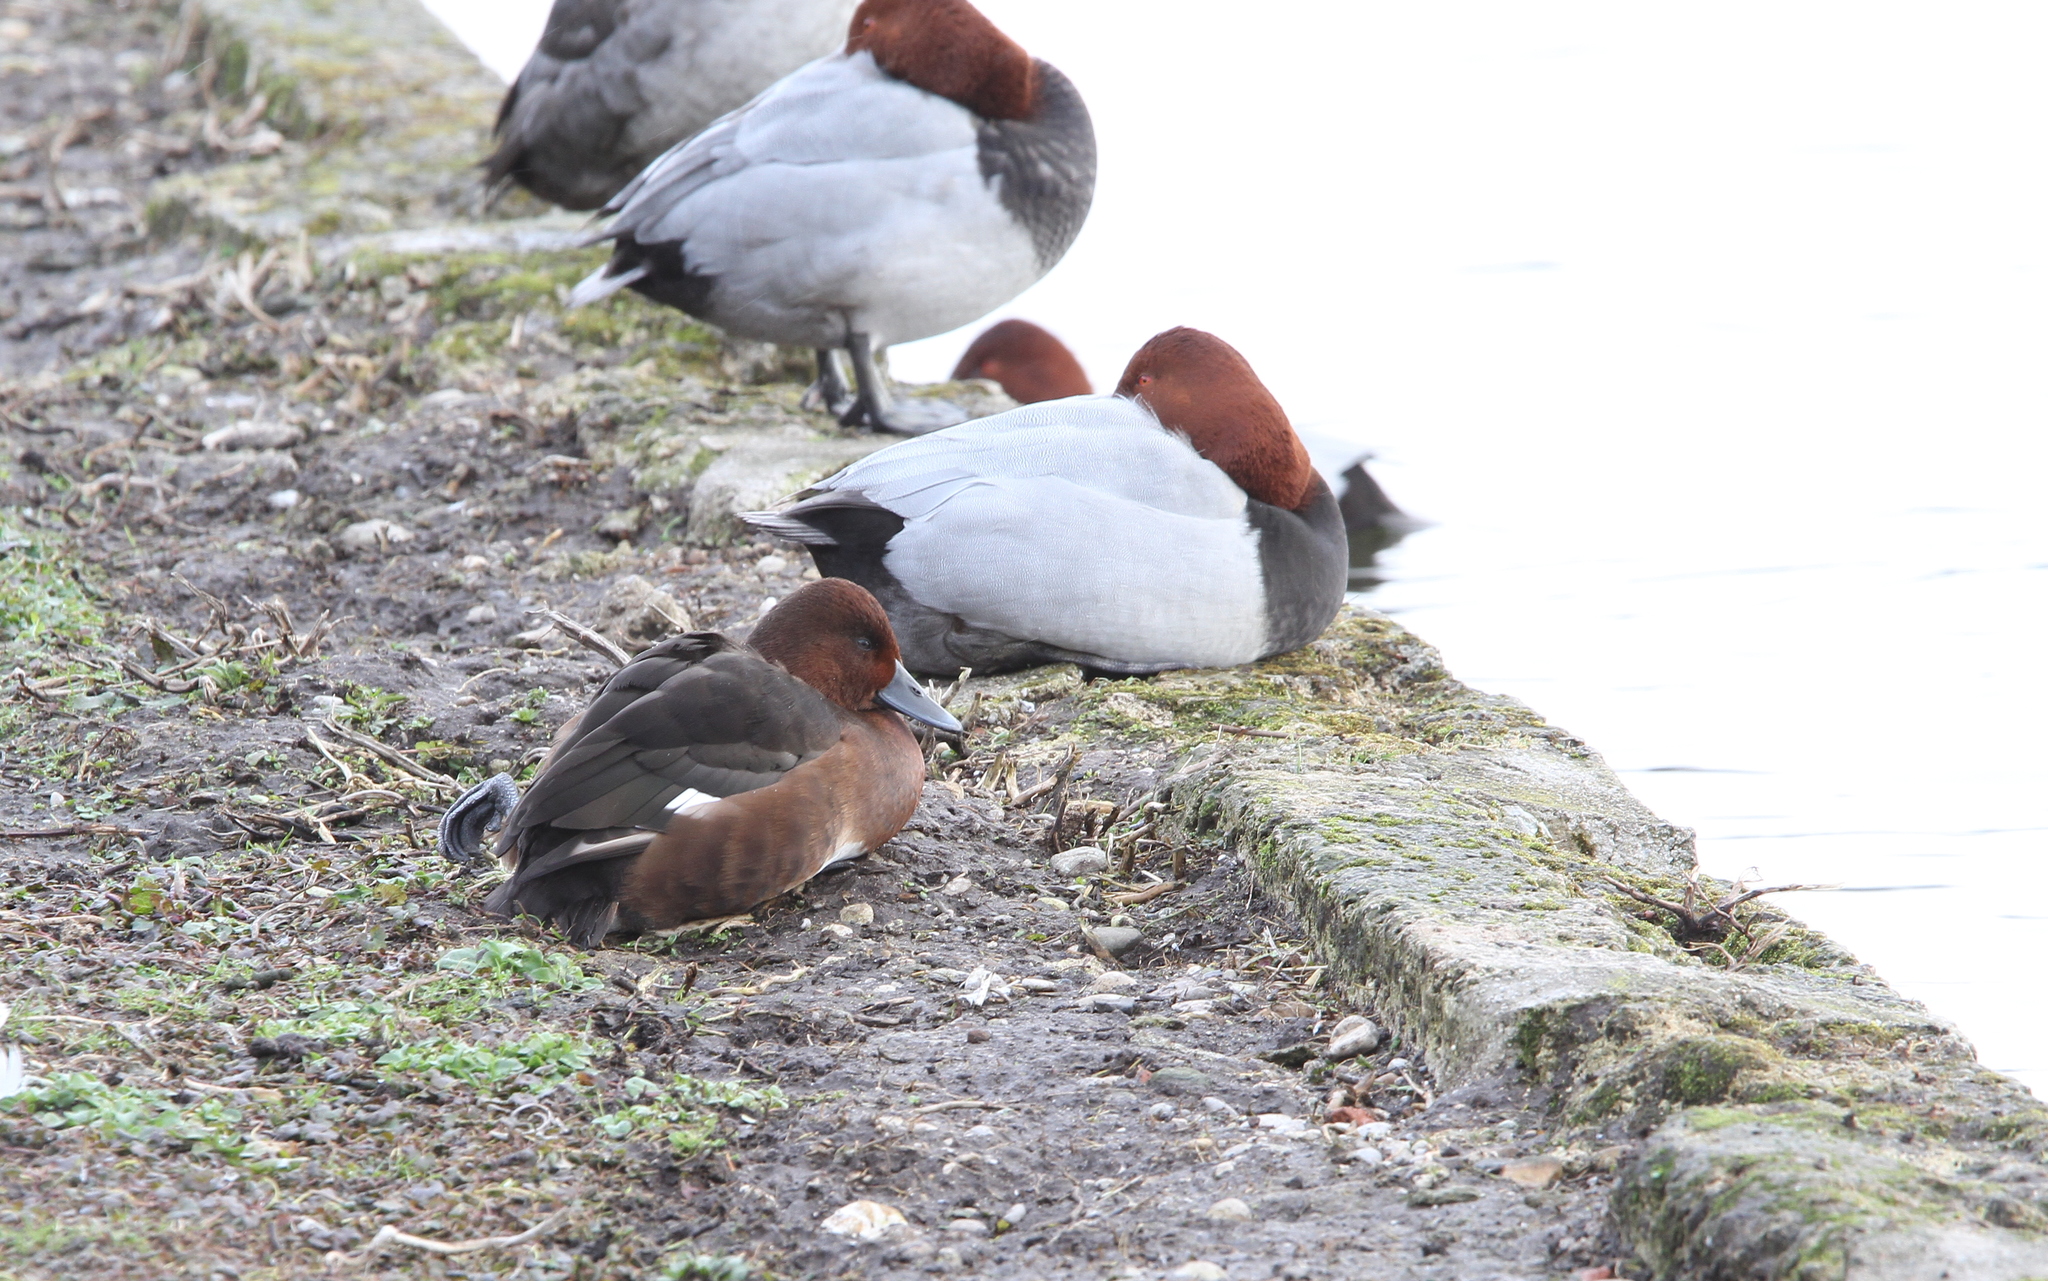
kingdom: Animalia
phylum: Chordata
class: Aves
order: Anseriformes
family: Anatidae
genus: Aythya
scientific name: Aythya nyroca
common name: Ferruginous duck
